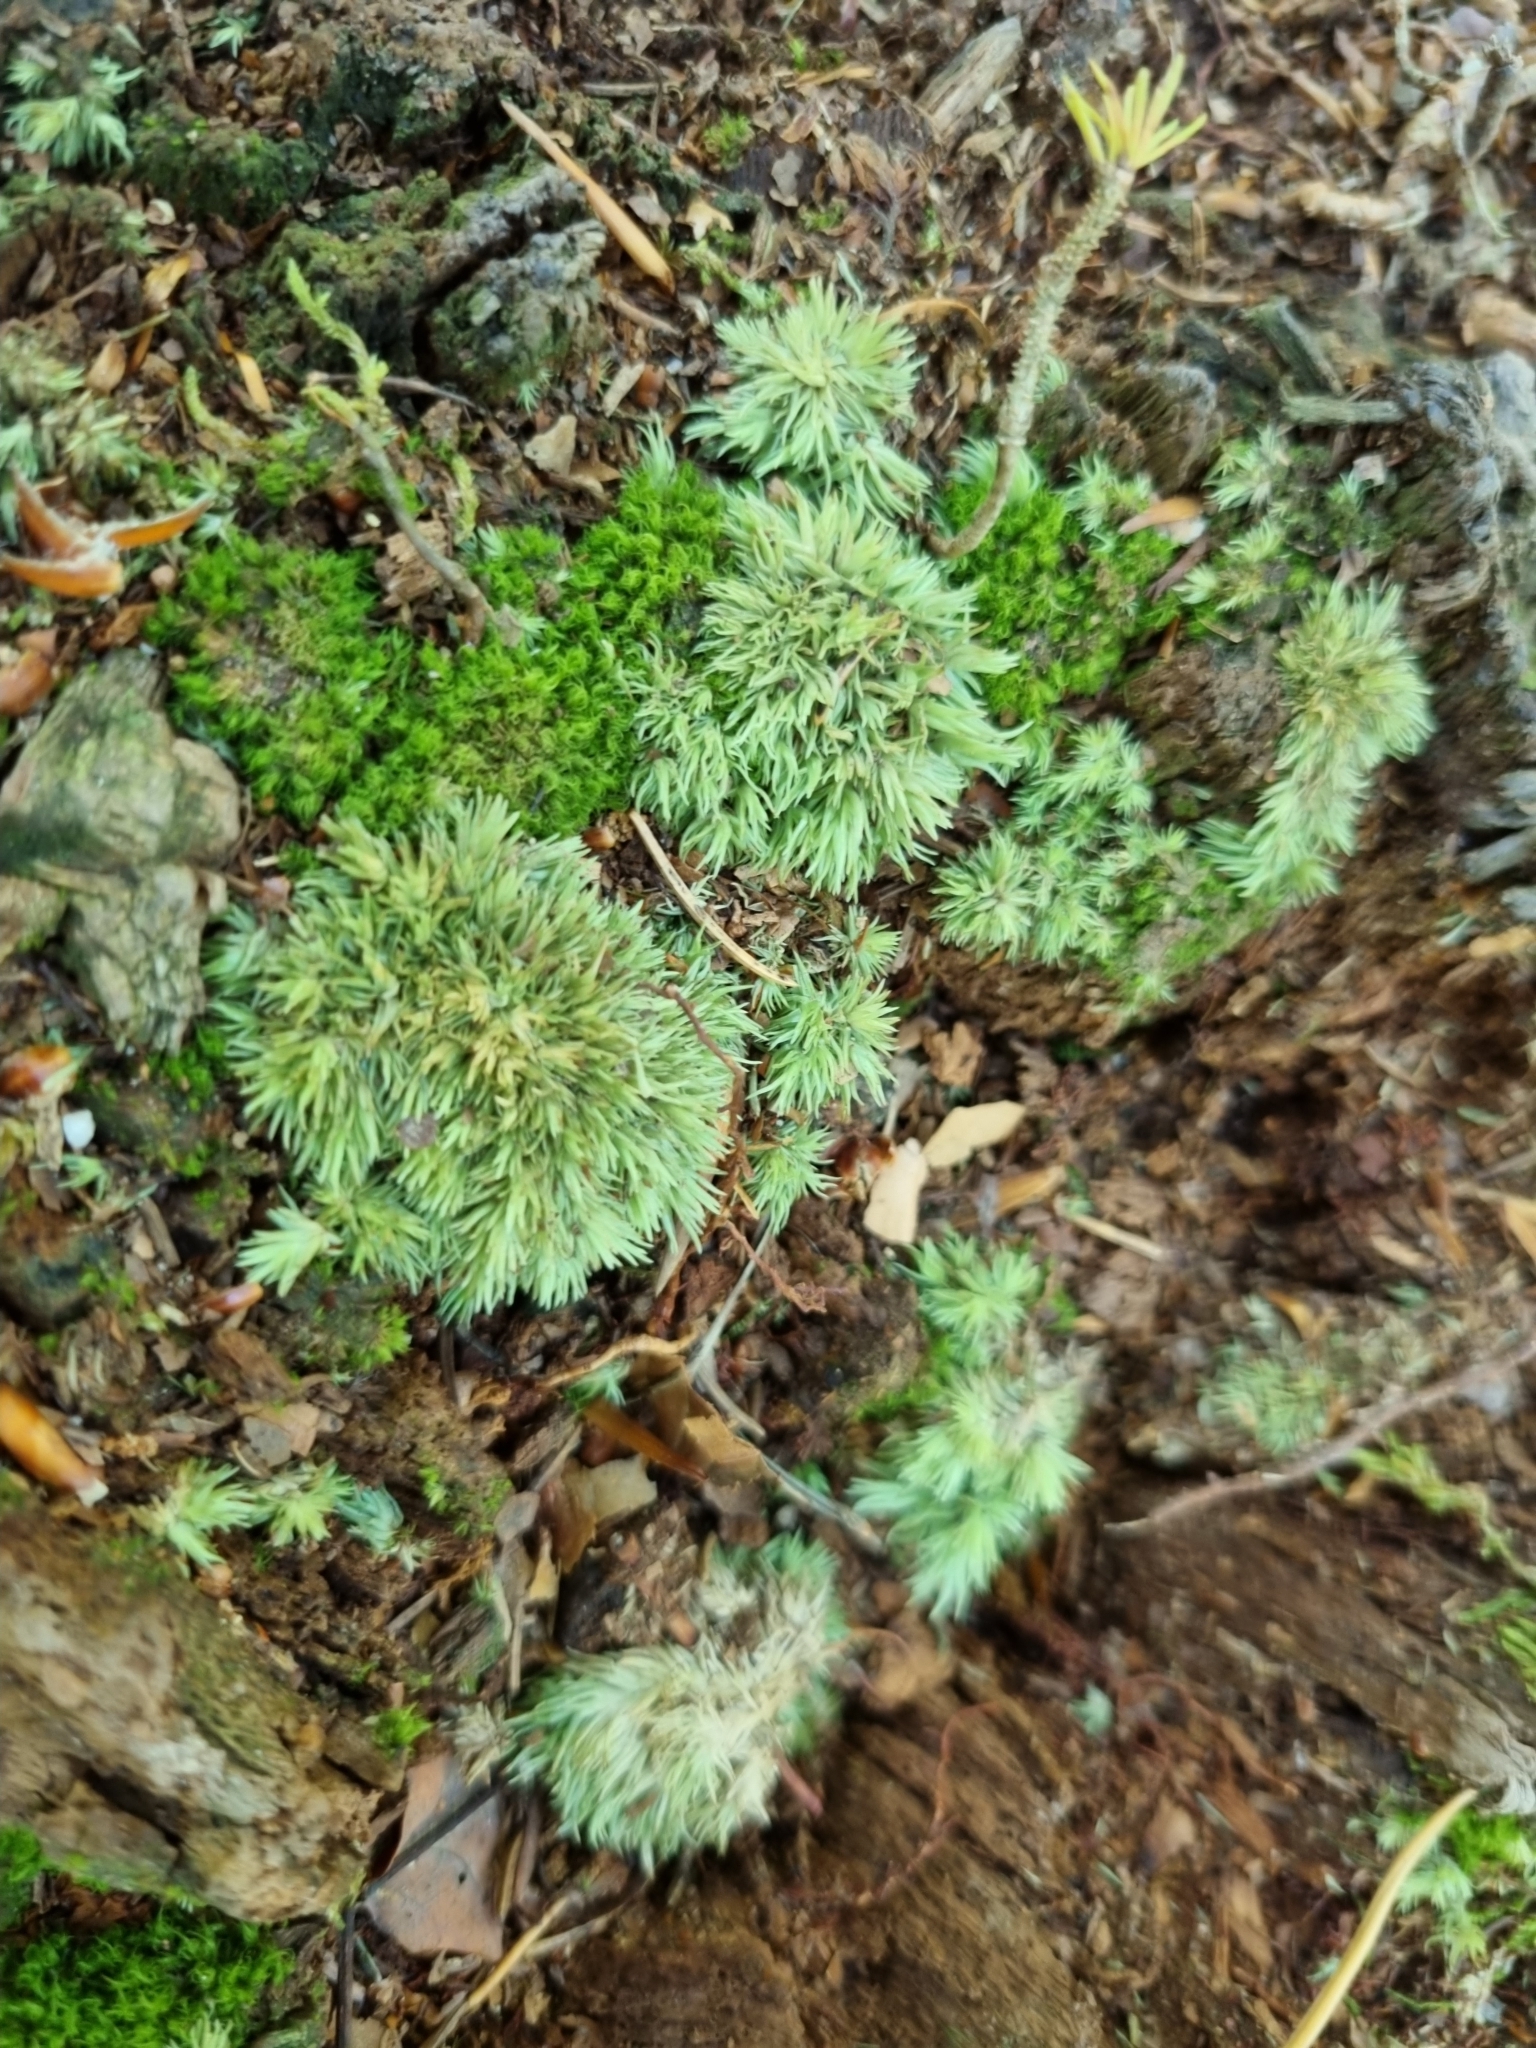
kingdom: Plantae
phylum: Bryophyta
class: Bryopsida
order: Dicranales
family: Leucobryaceae
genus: Leucobryum
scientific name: Leucobryum glaucum
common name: Large white-moss
